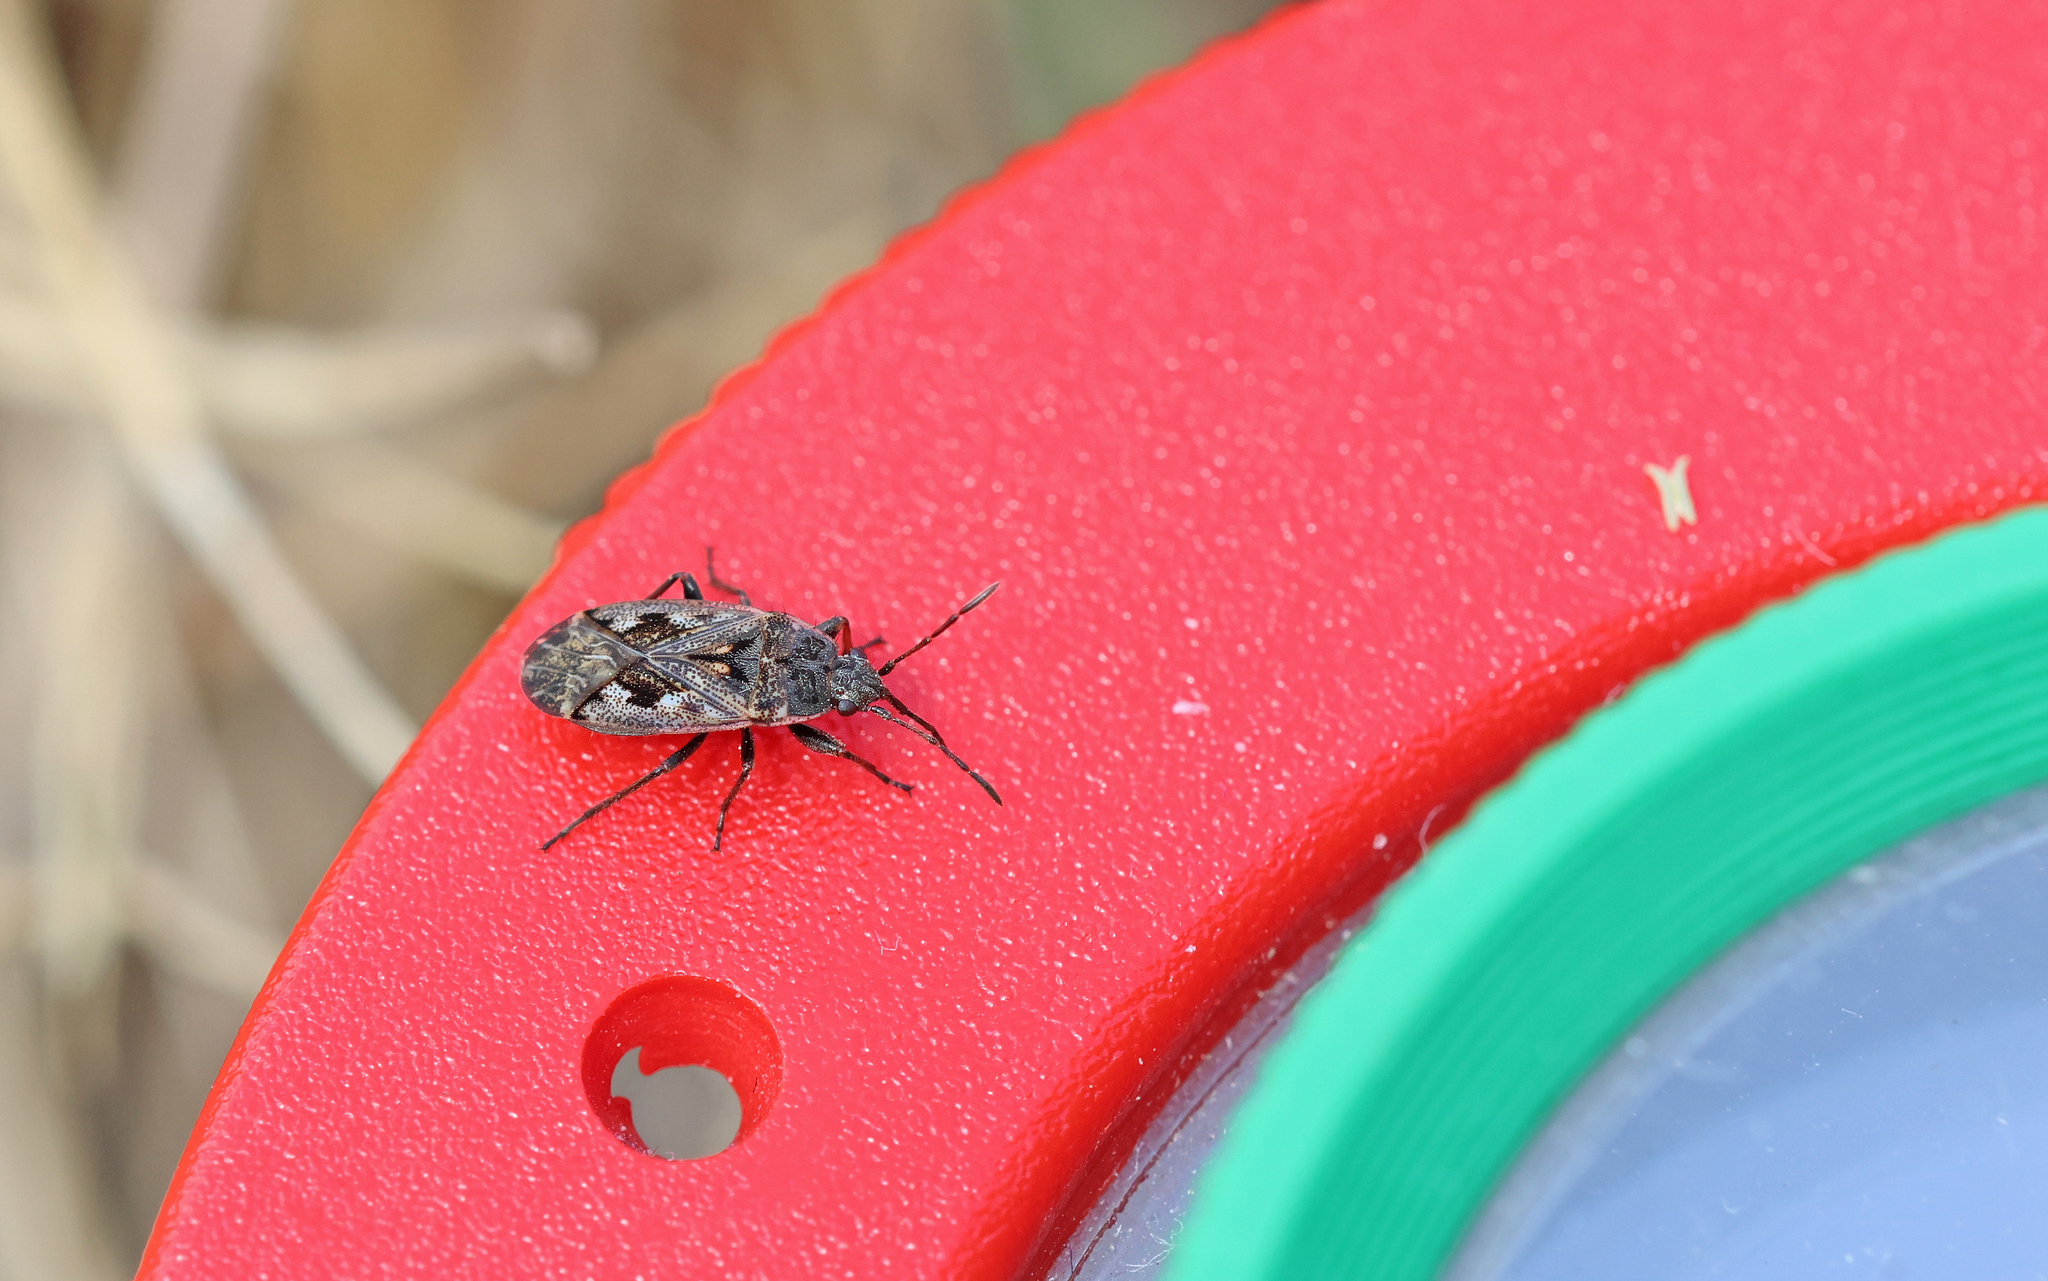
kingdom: Animalia
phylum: Arthropoda
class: Insecta
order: Hemiptera
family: Rhyparochromidae
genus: Sphragisticus
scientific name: Sphragisticus nebulosus
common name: Dirt-colored seed bug
